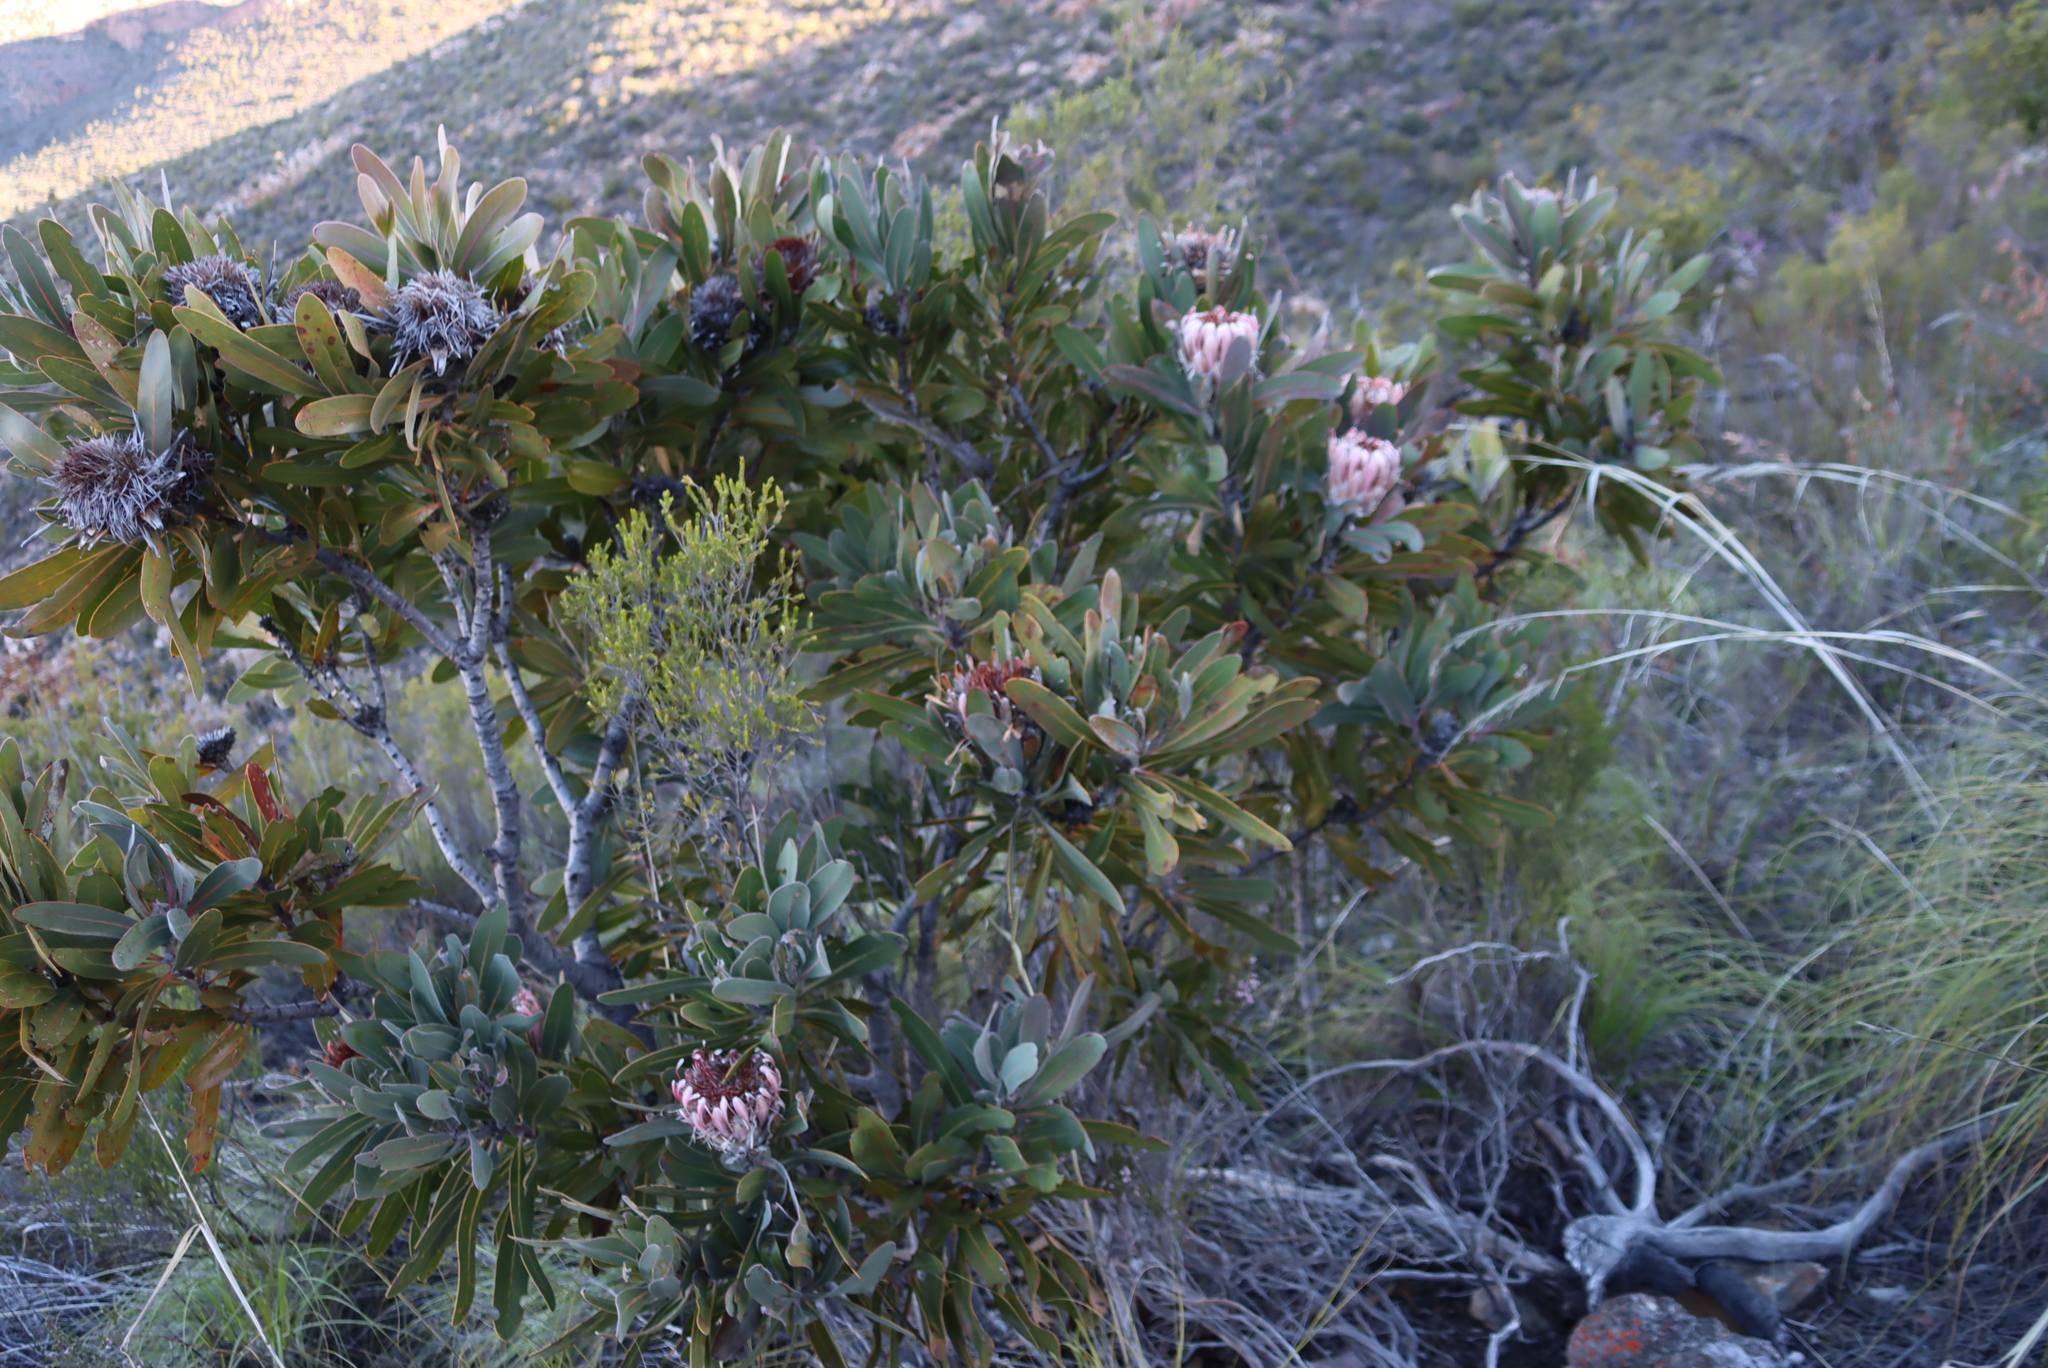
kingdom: Plantae
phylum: Tracheophyta
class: Magnoliopsida
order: Proteales
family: Proteaceae
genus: Protea
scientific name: Protea lorifolia
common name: Strap-leaved protea
